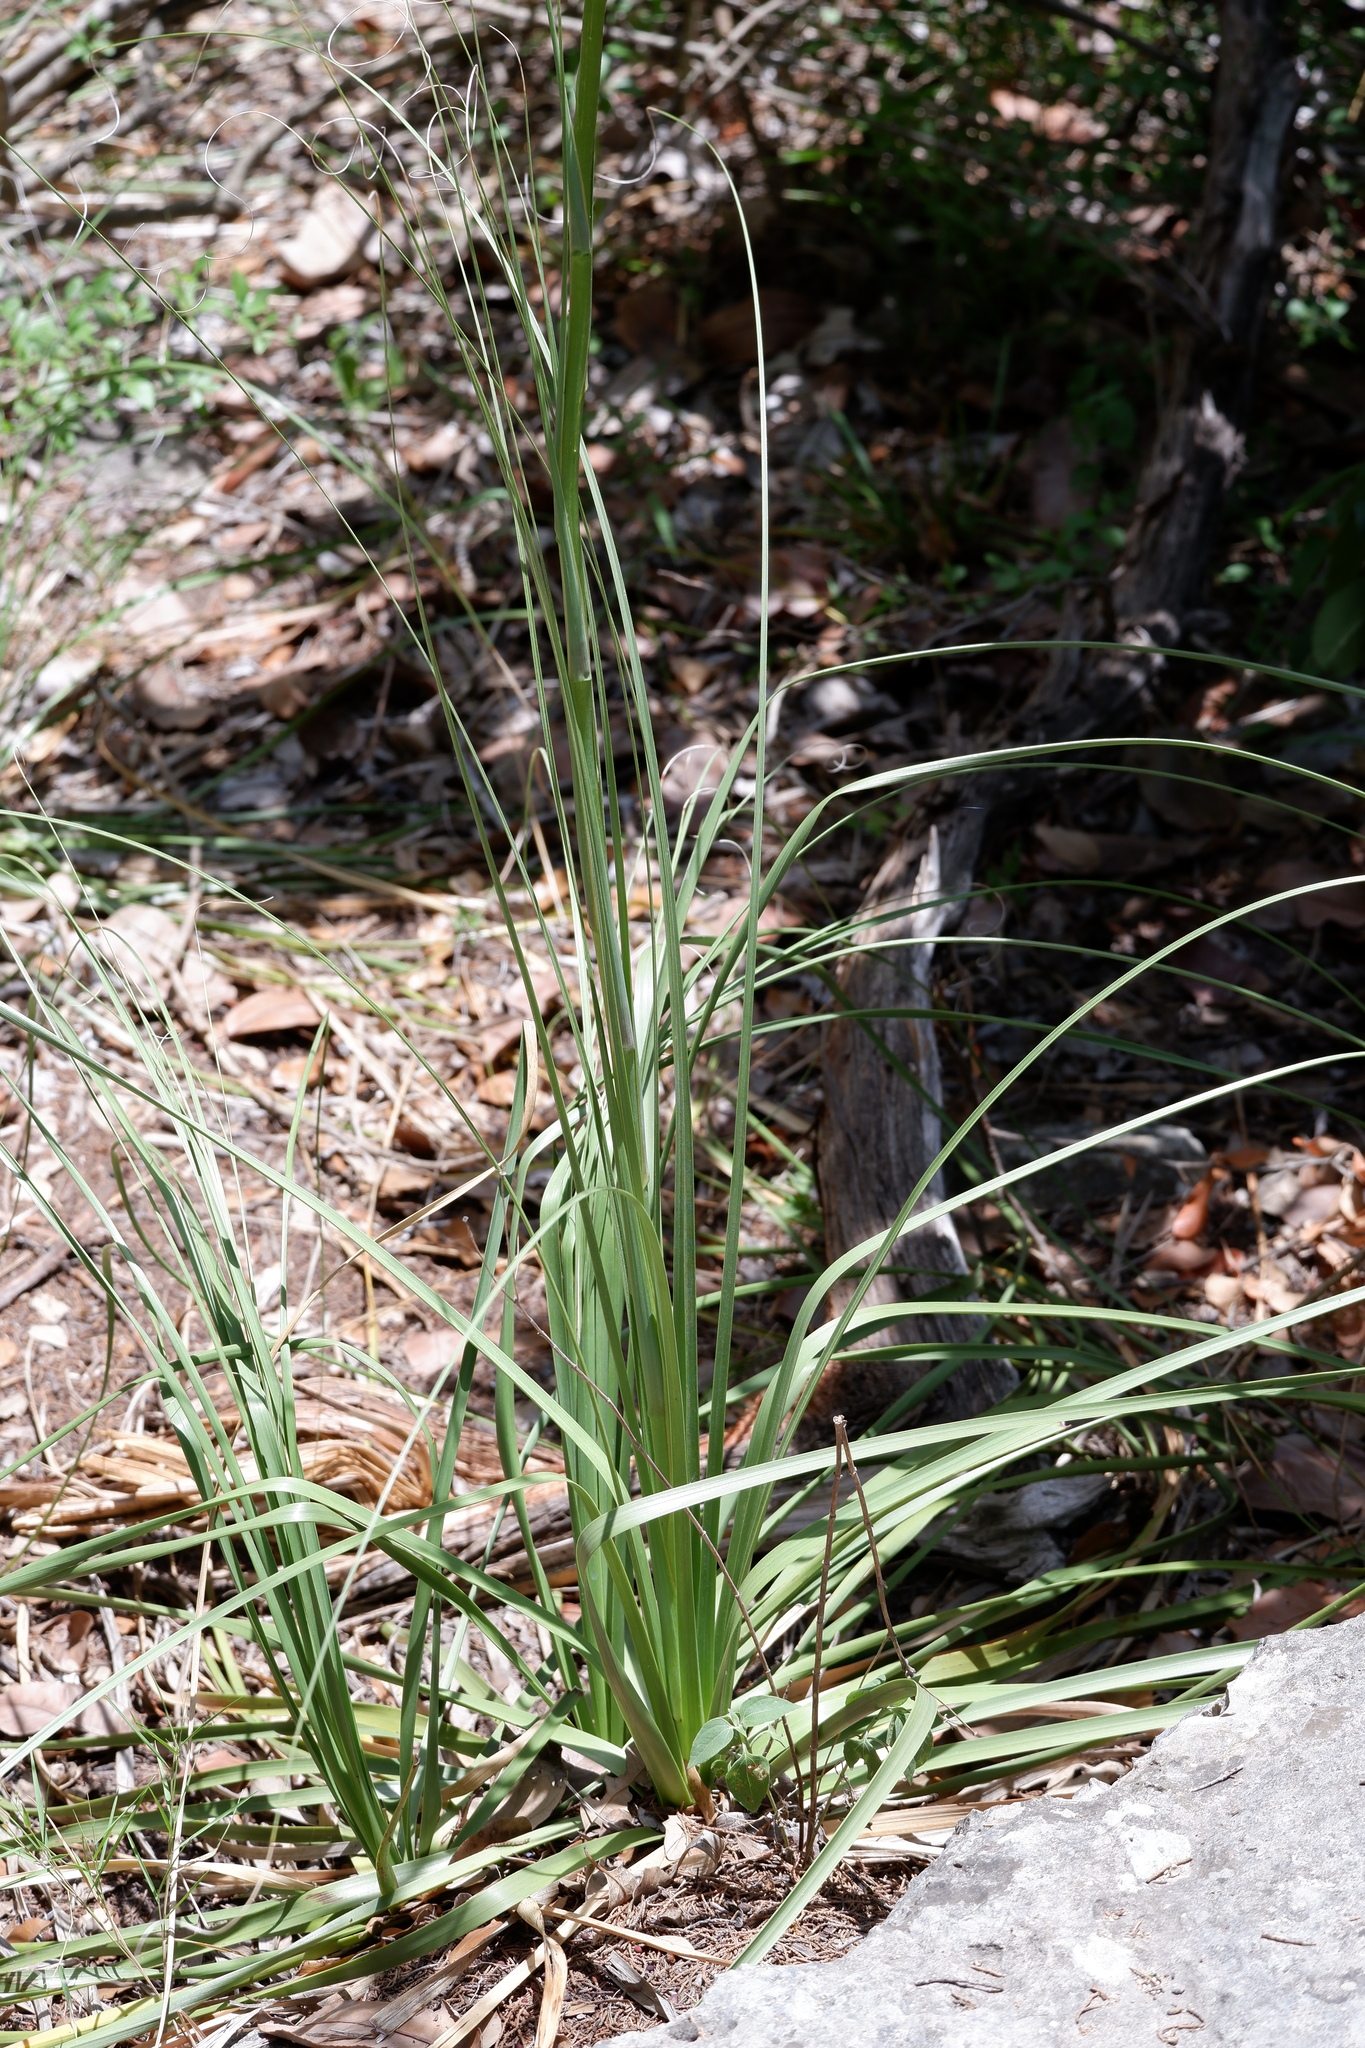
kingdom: Plantae
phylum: Tracheophyta
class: Liliopsida
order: Asparagales
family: Asparagaceae
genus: Nolina
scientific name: Nolina lindheimeriana
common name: Lindheimer's bear-grass
